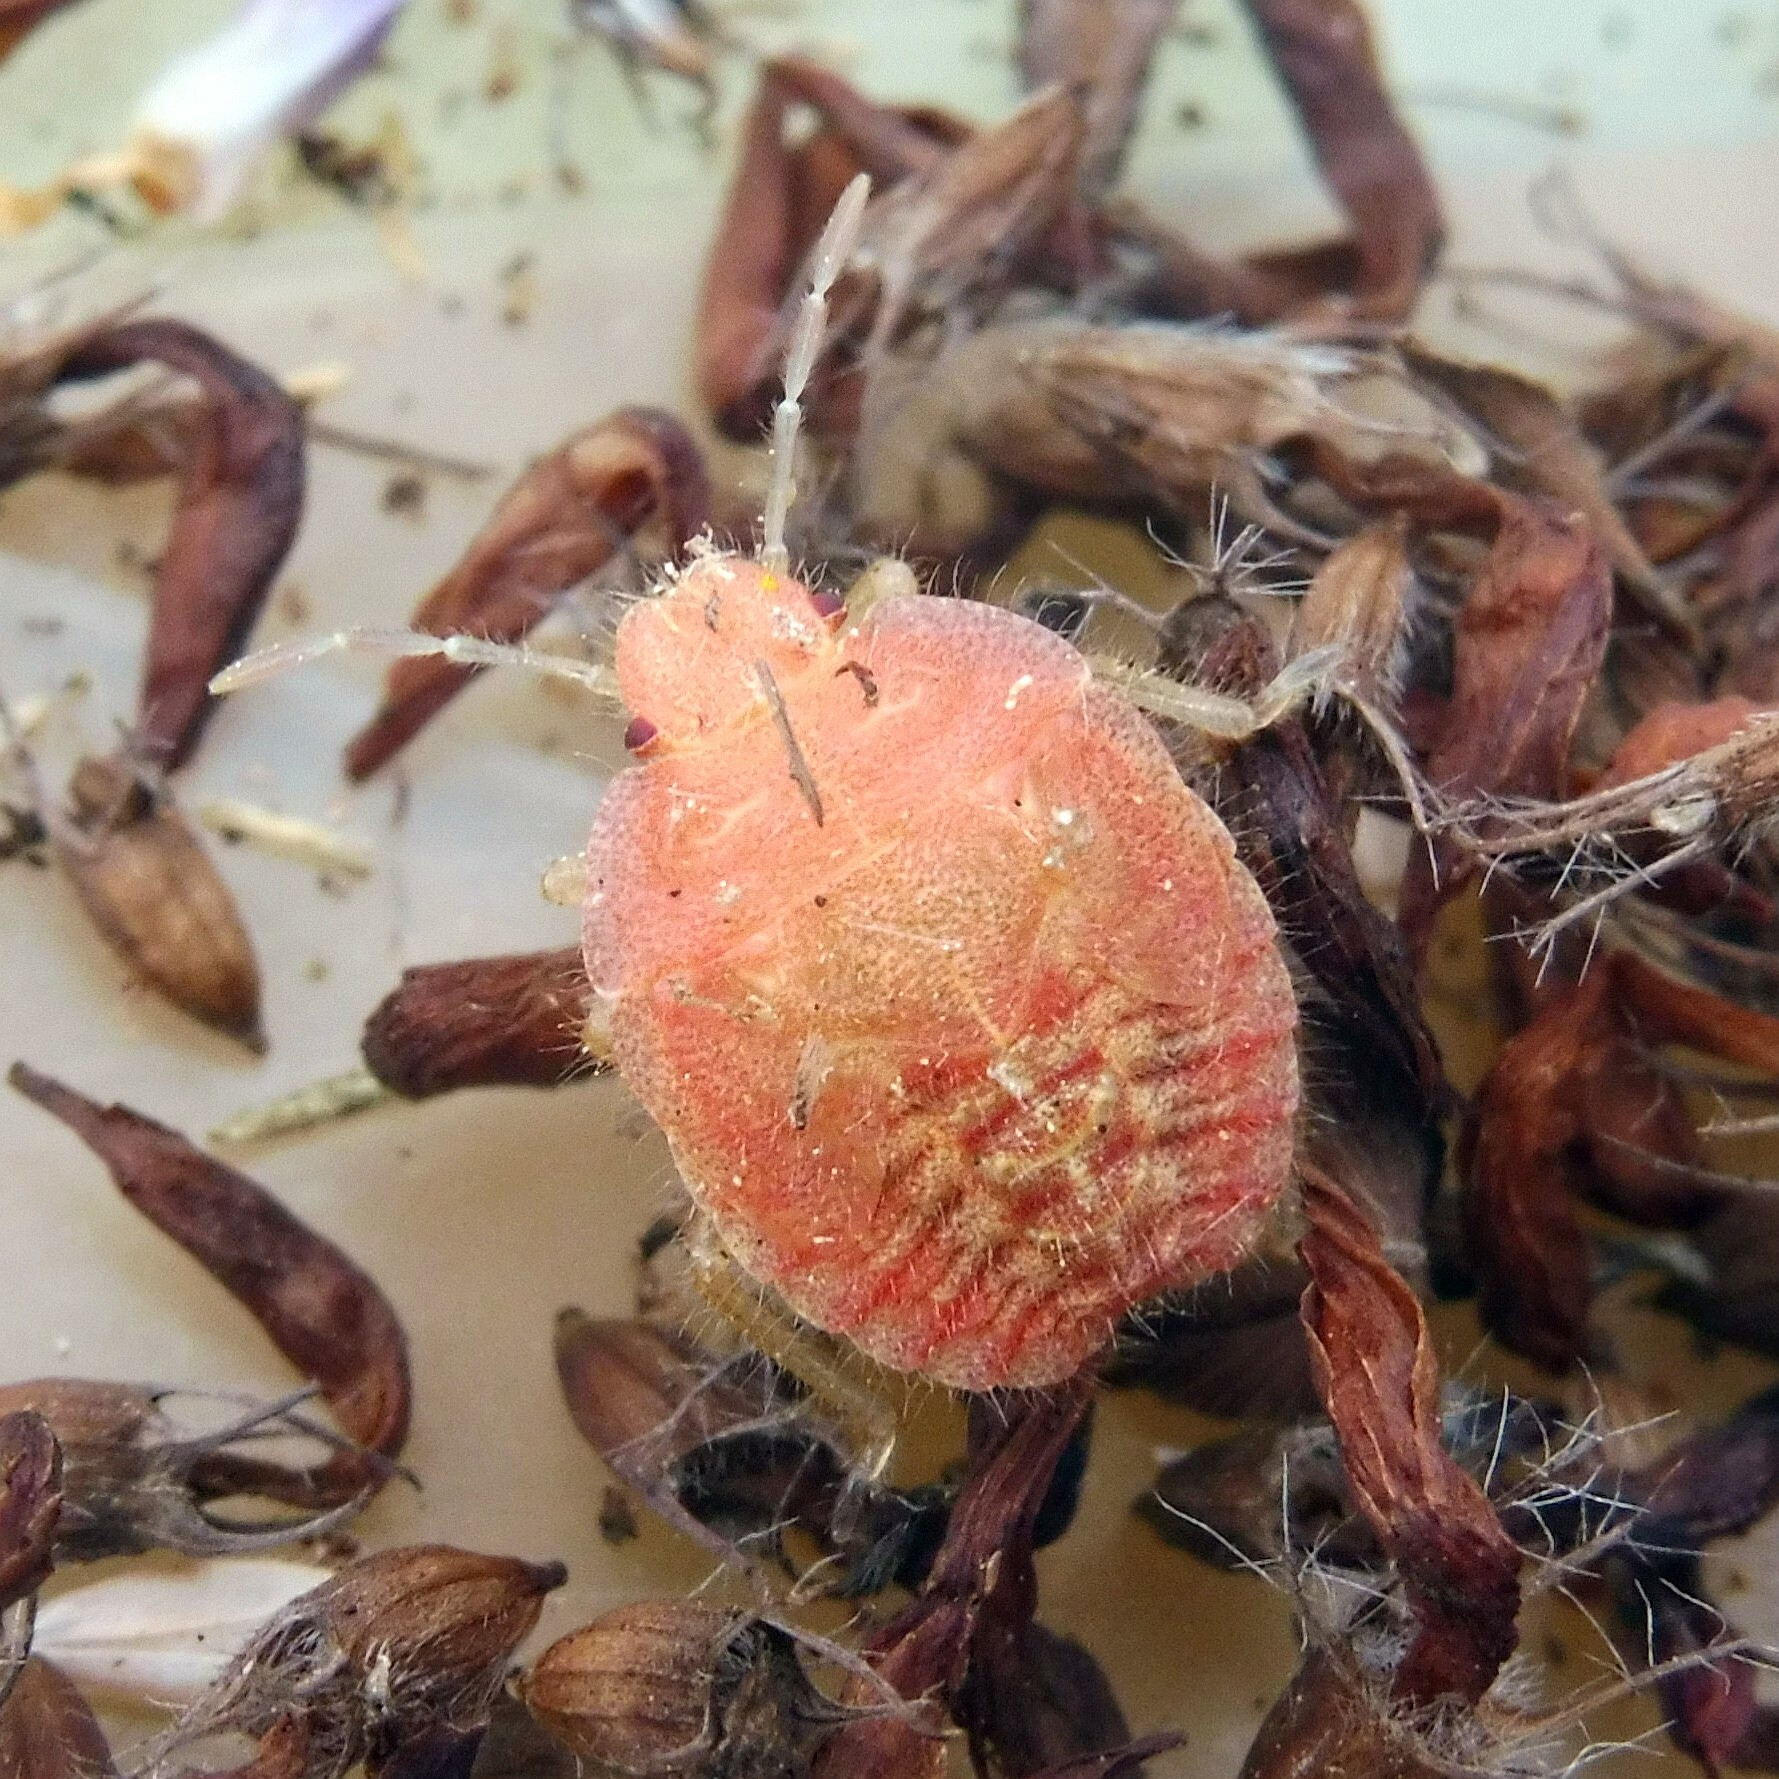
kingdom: Animalia
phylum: Arthropoda
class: Insecta
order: Hemiptera
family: Pentatomidae
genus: Dolycoris
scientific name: Dolycoris baccarum
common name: Sloe bug
